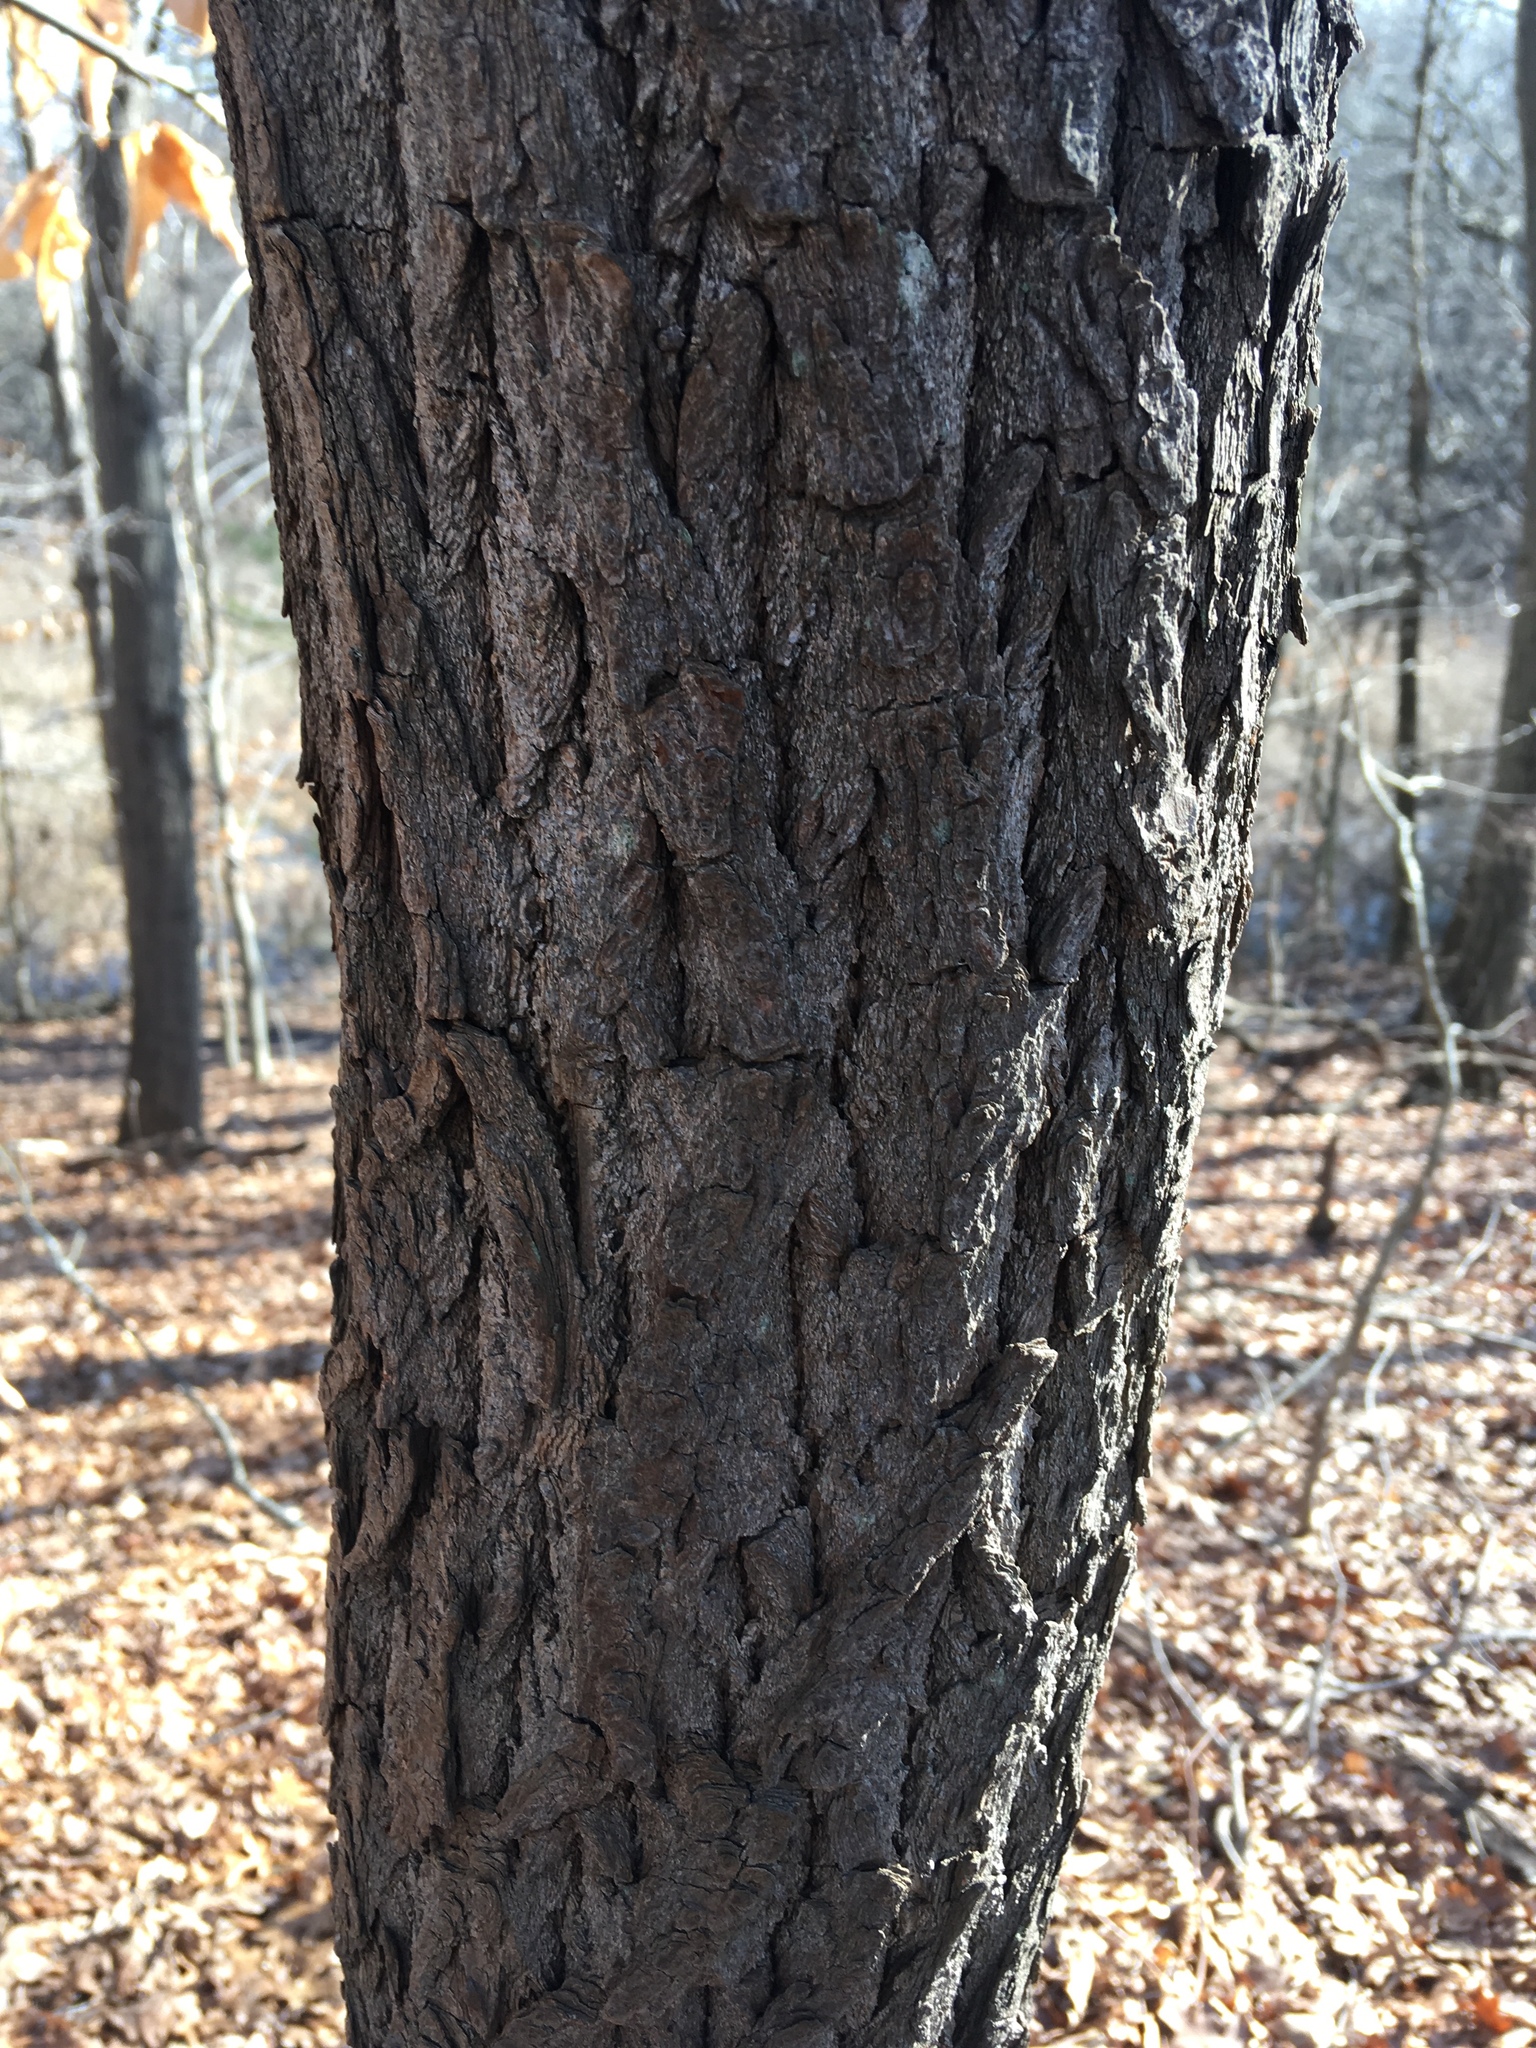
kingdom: Plantae
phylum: Tracheophyta
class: Magnoliopsida
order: Laurales
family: Lauraceae
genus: Sassafras
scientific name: Sassafras albidum
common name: Sassafras
